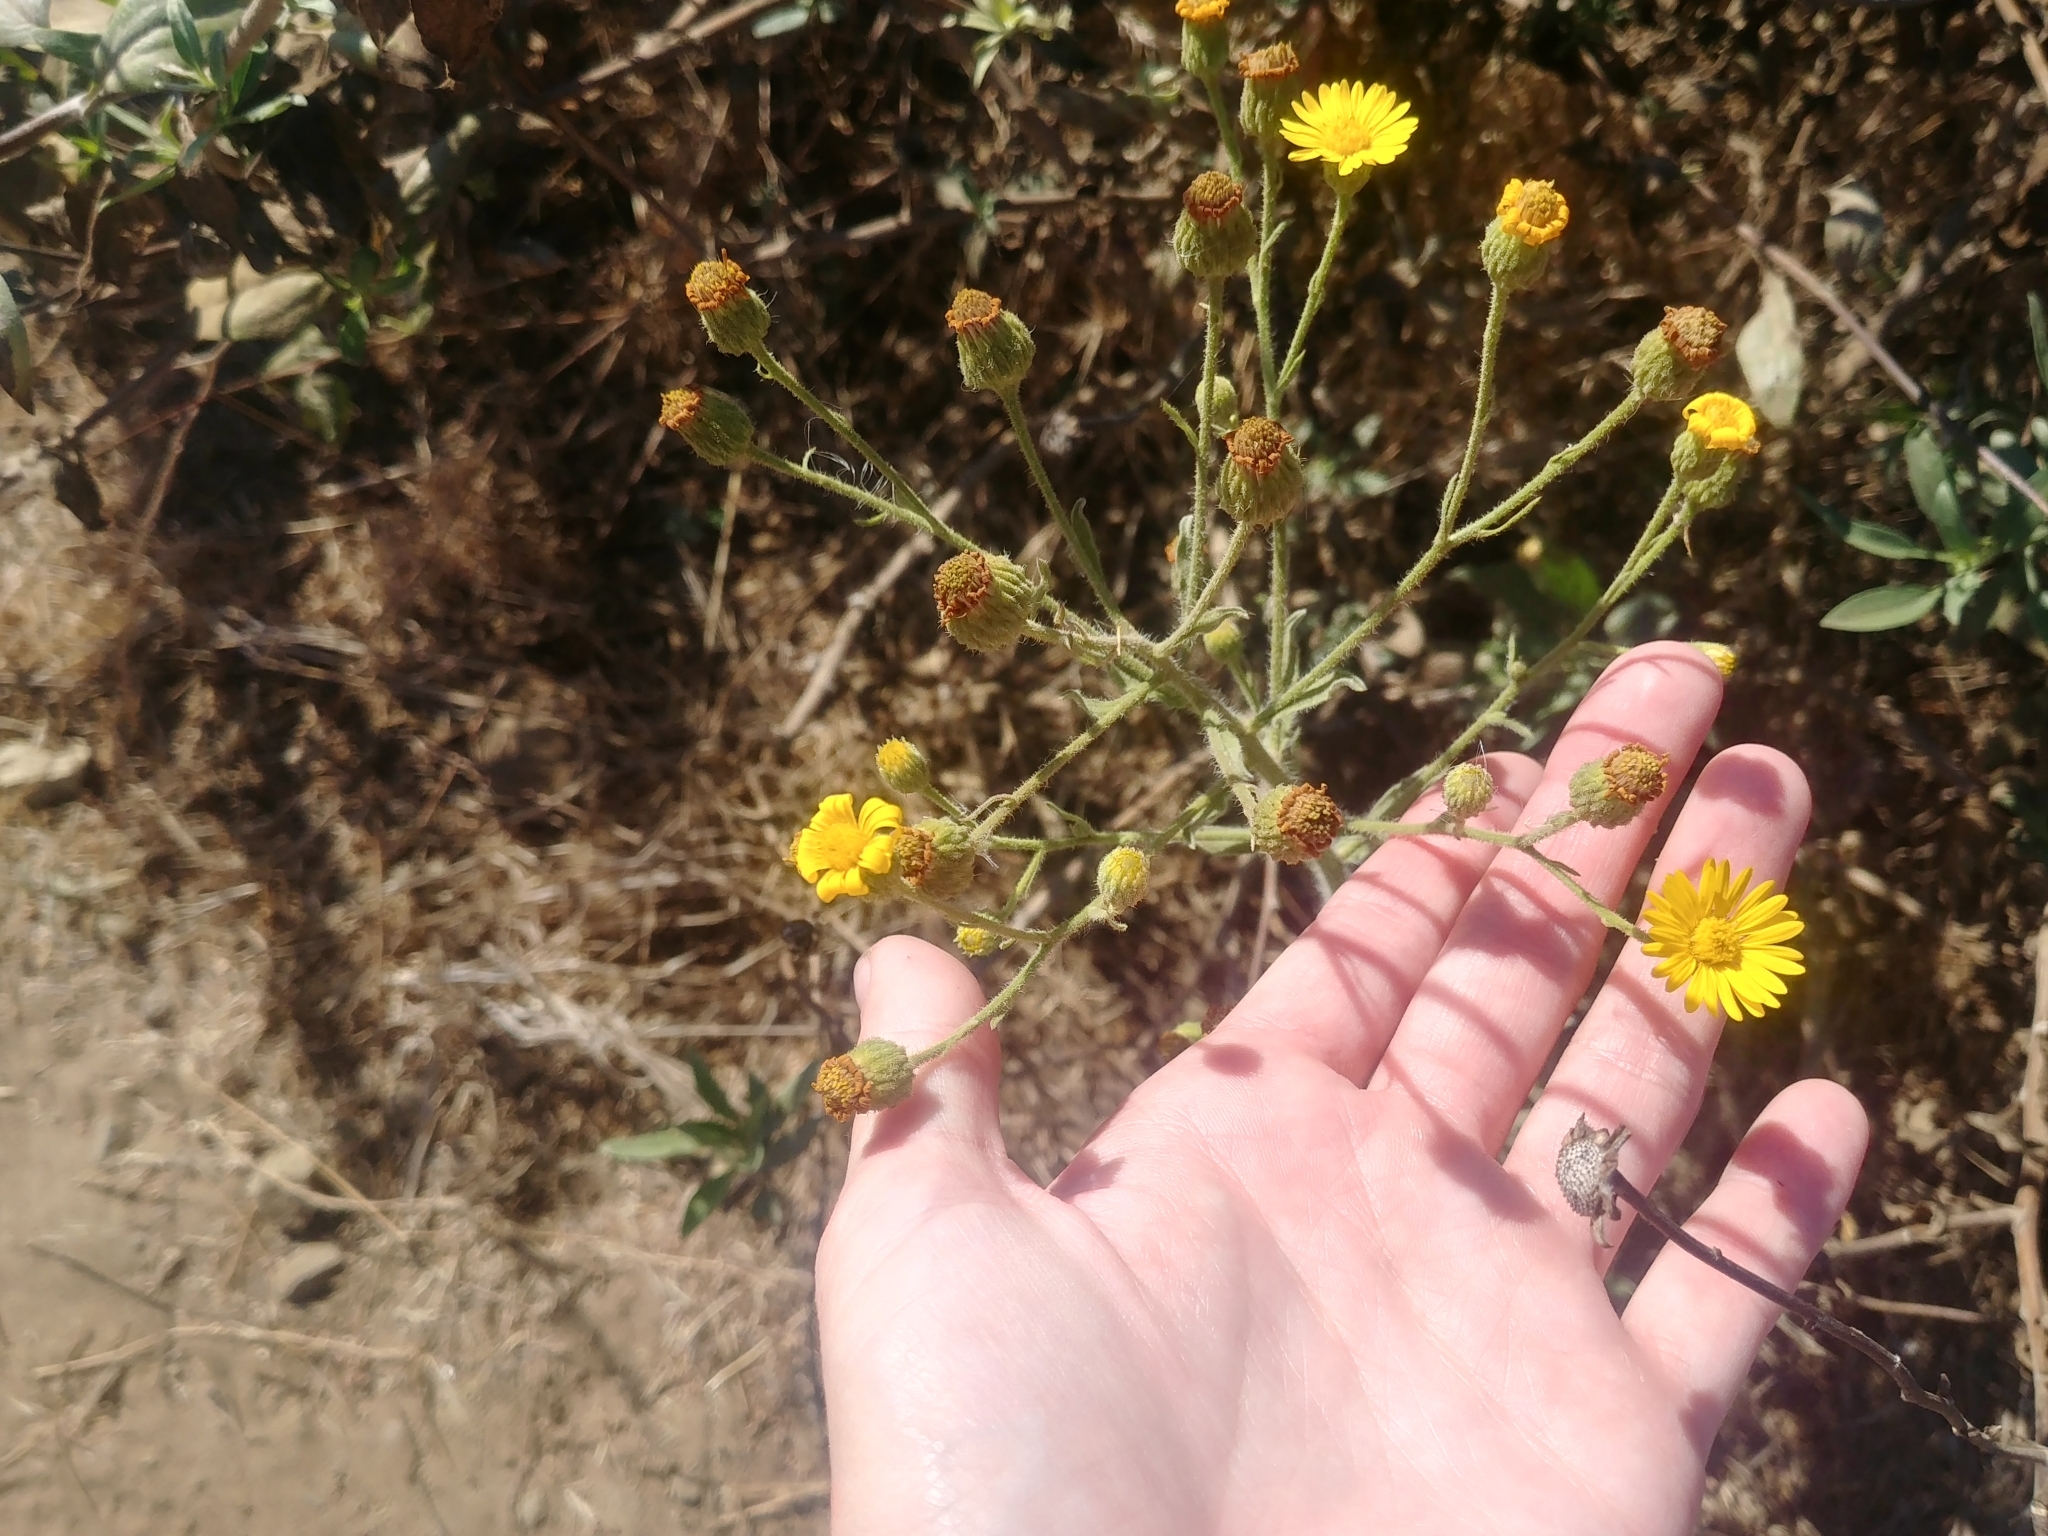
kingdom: Plantae
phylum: Tracheophyta
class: Magnoliopsida
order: Asterales
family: Asteraceae
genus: Heterotheca
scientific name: Heterotheca grandiflora
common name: Telegraphweed
